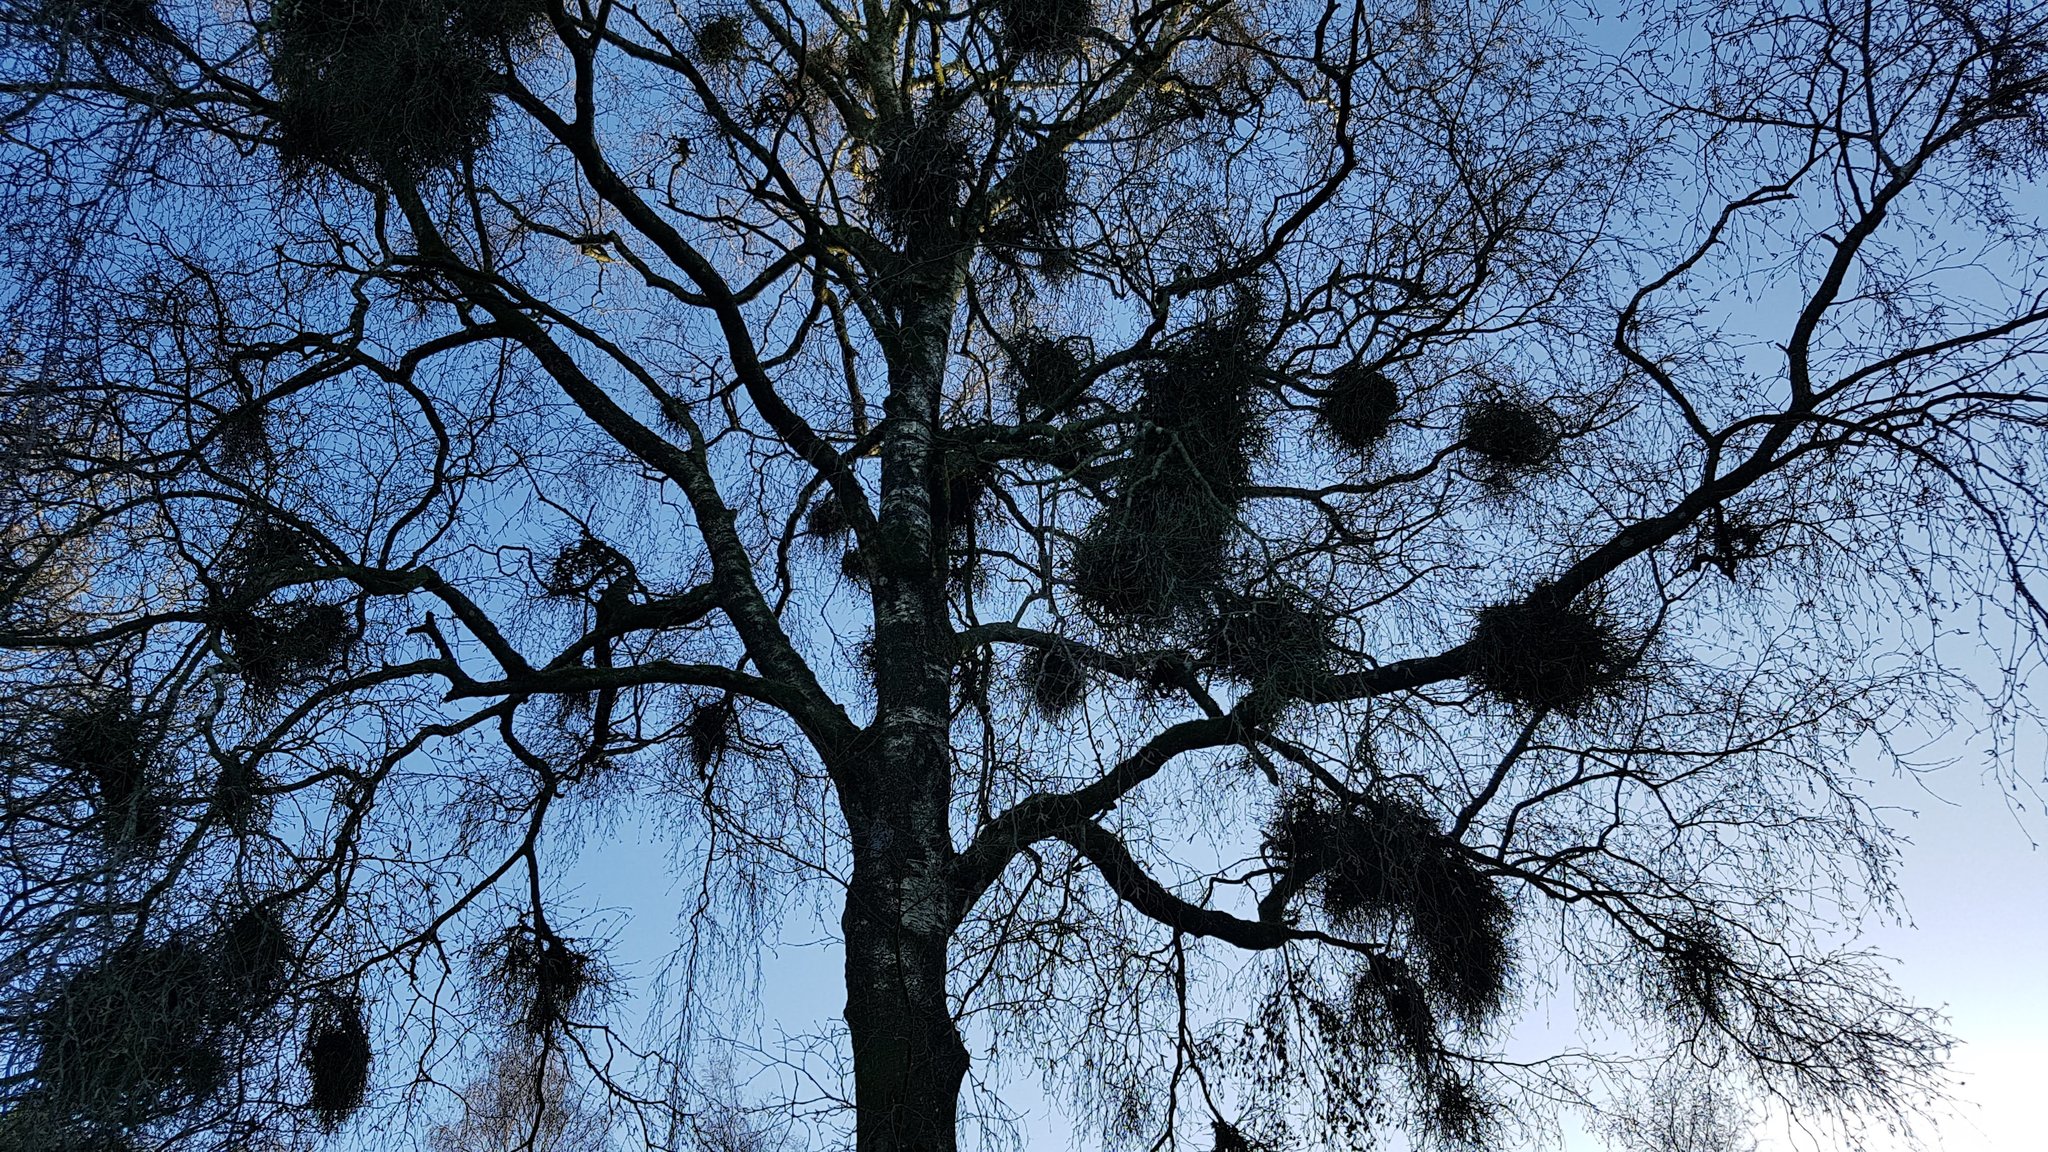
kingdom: Fungi
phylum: Ascomycota
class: Taphrinomycetes
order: Taphrinales
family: Taphrinaceae
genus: Taphrina
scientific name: Taphrina betulina
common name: Birch besom
